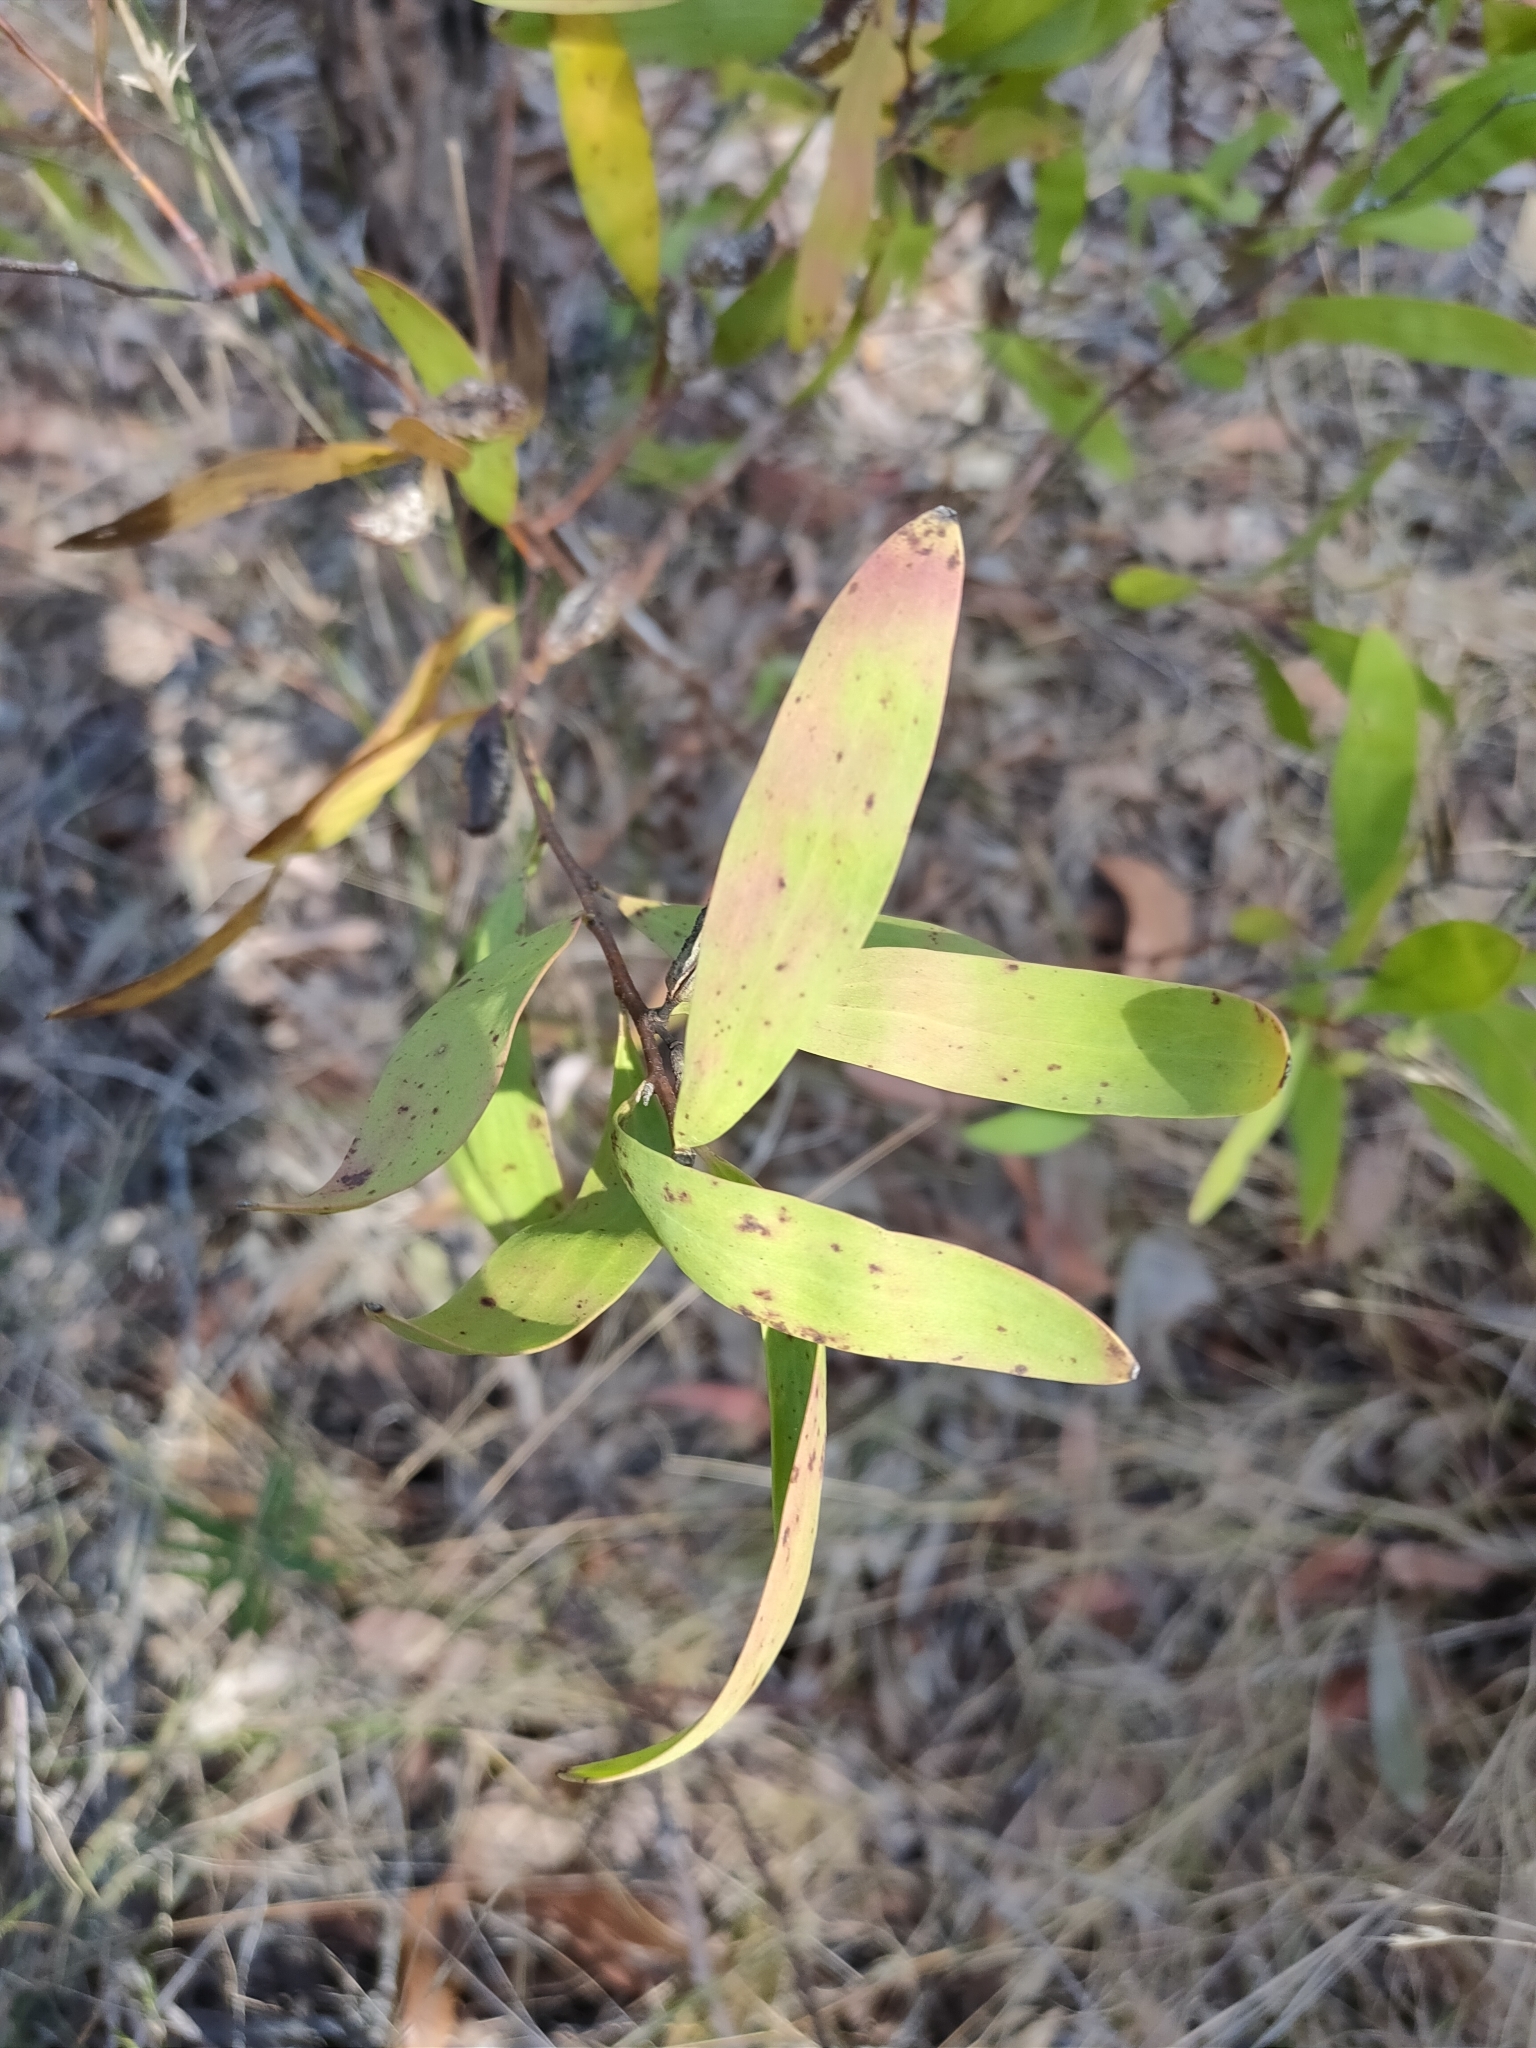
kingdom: Plantae
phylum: Tracheophyta
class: Magnoliopsida
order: Proteales
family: Proteaceae
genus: Hakea
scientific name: Hakea florulenta
